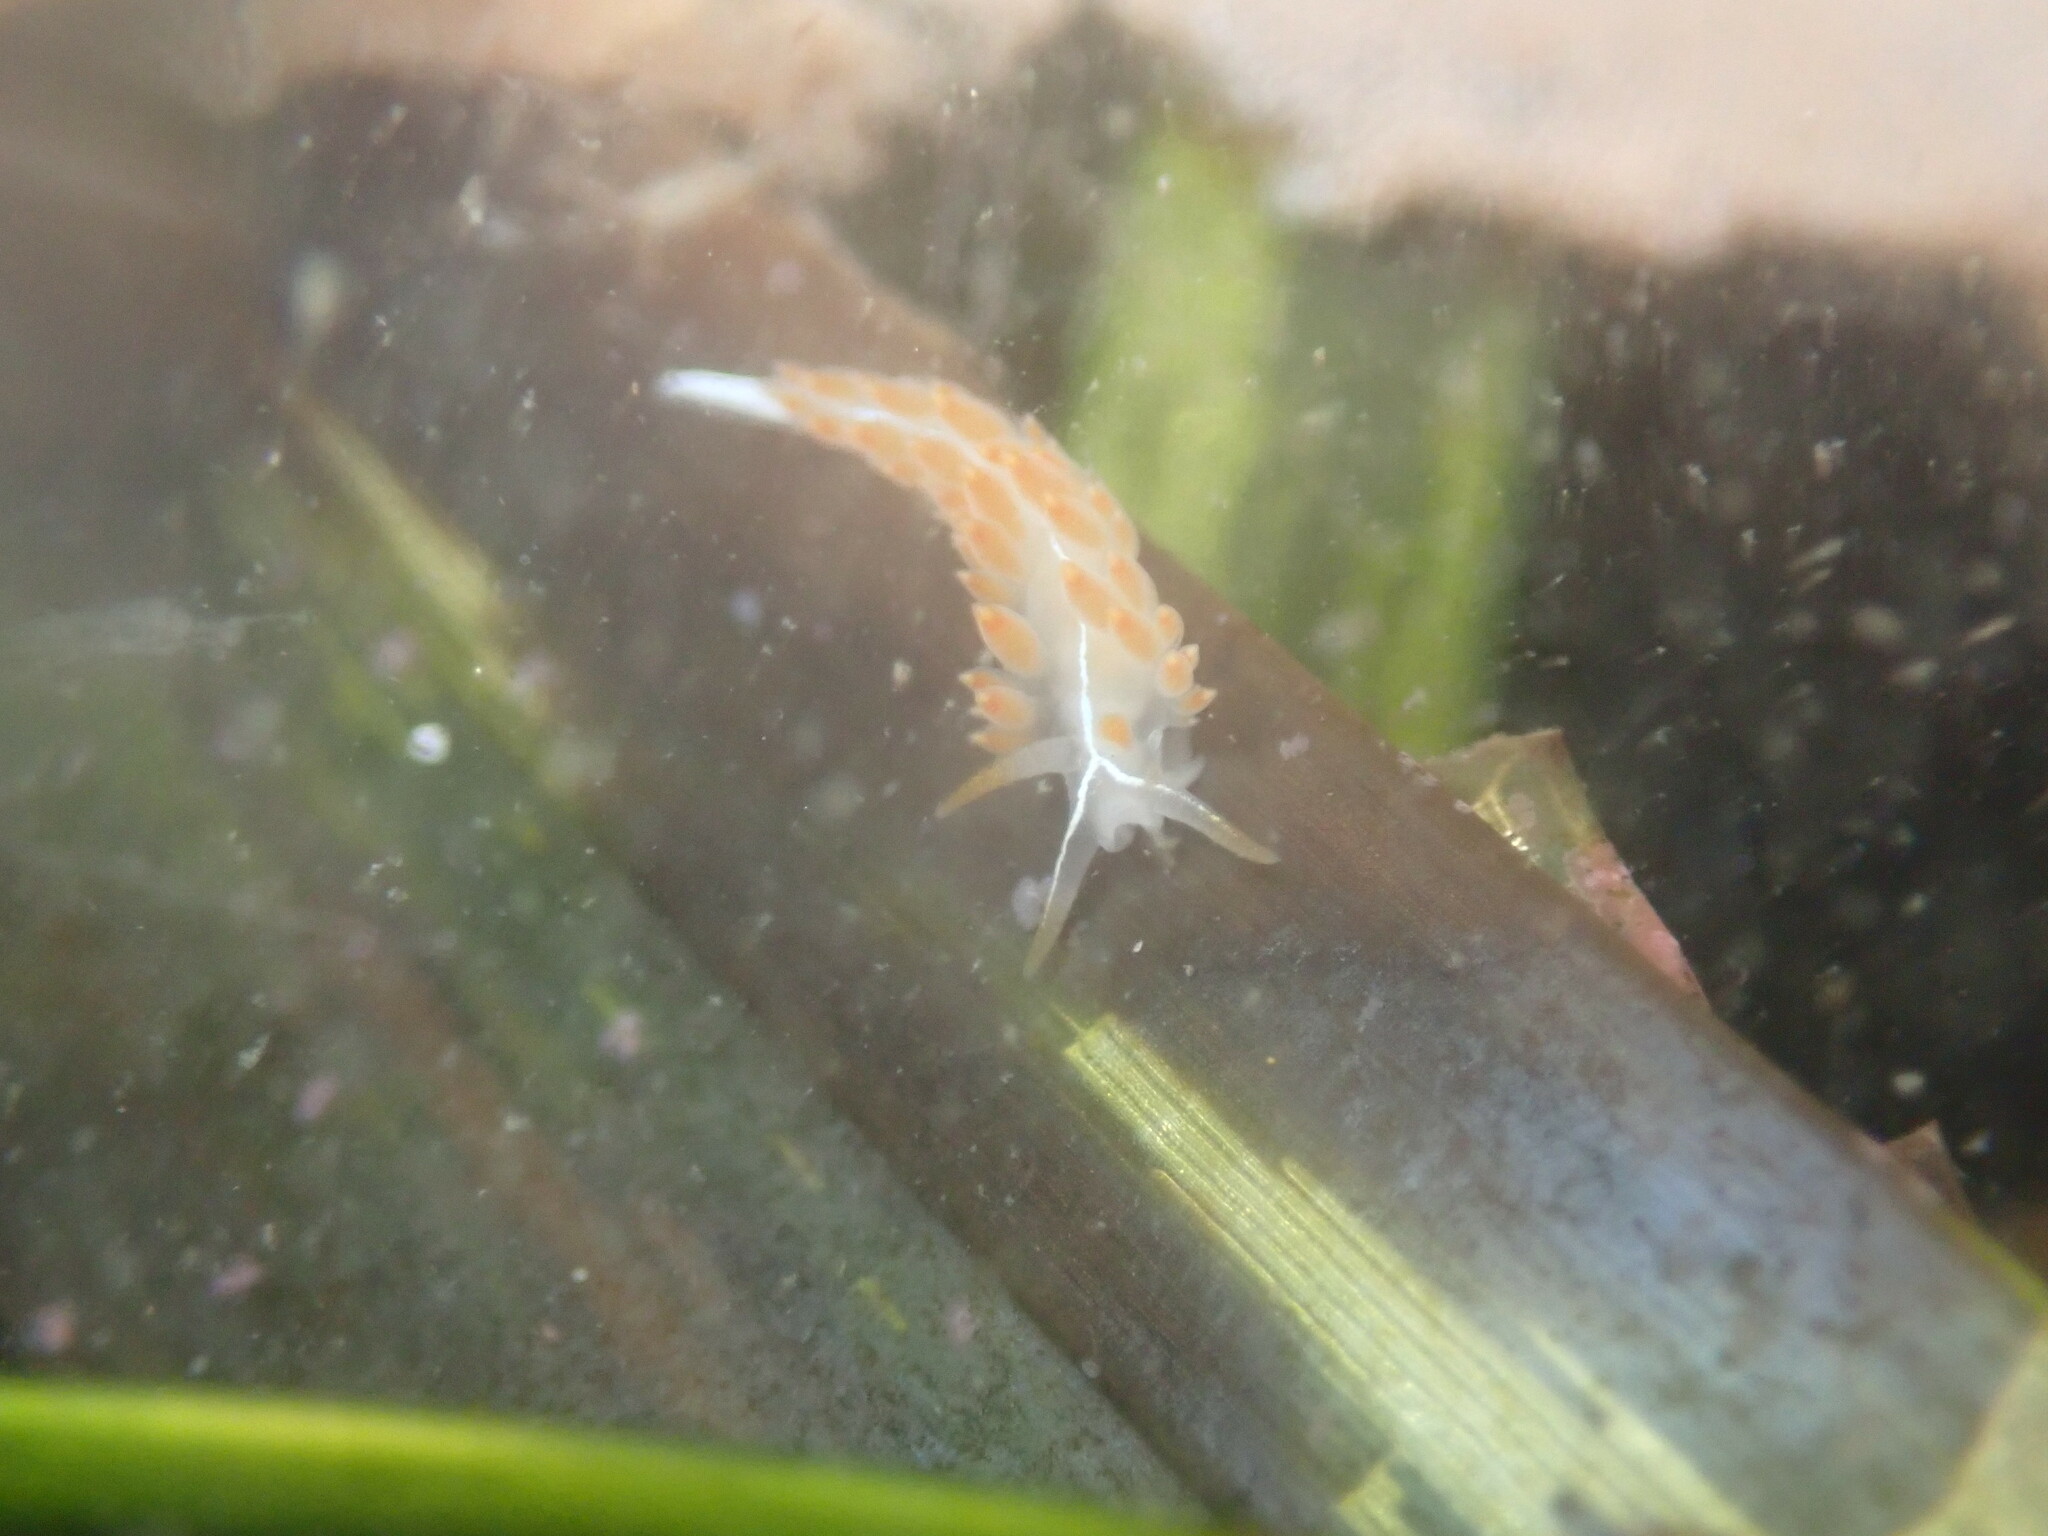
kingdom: Animalia
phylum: Mollusca
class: Gastropoda
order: Nudibranchia
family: Coryphellidae
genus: Coryphella
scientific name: Coryphella trilineata
